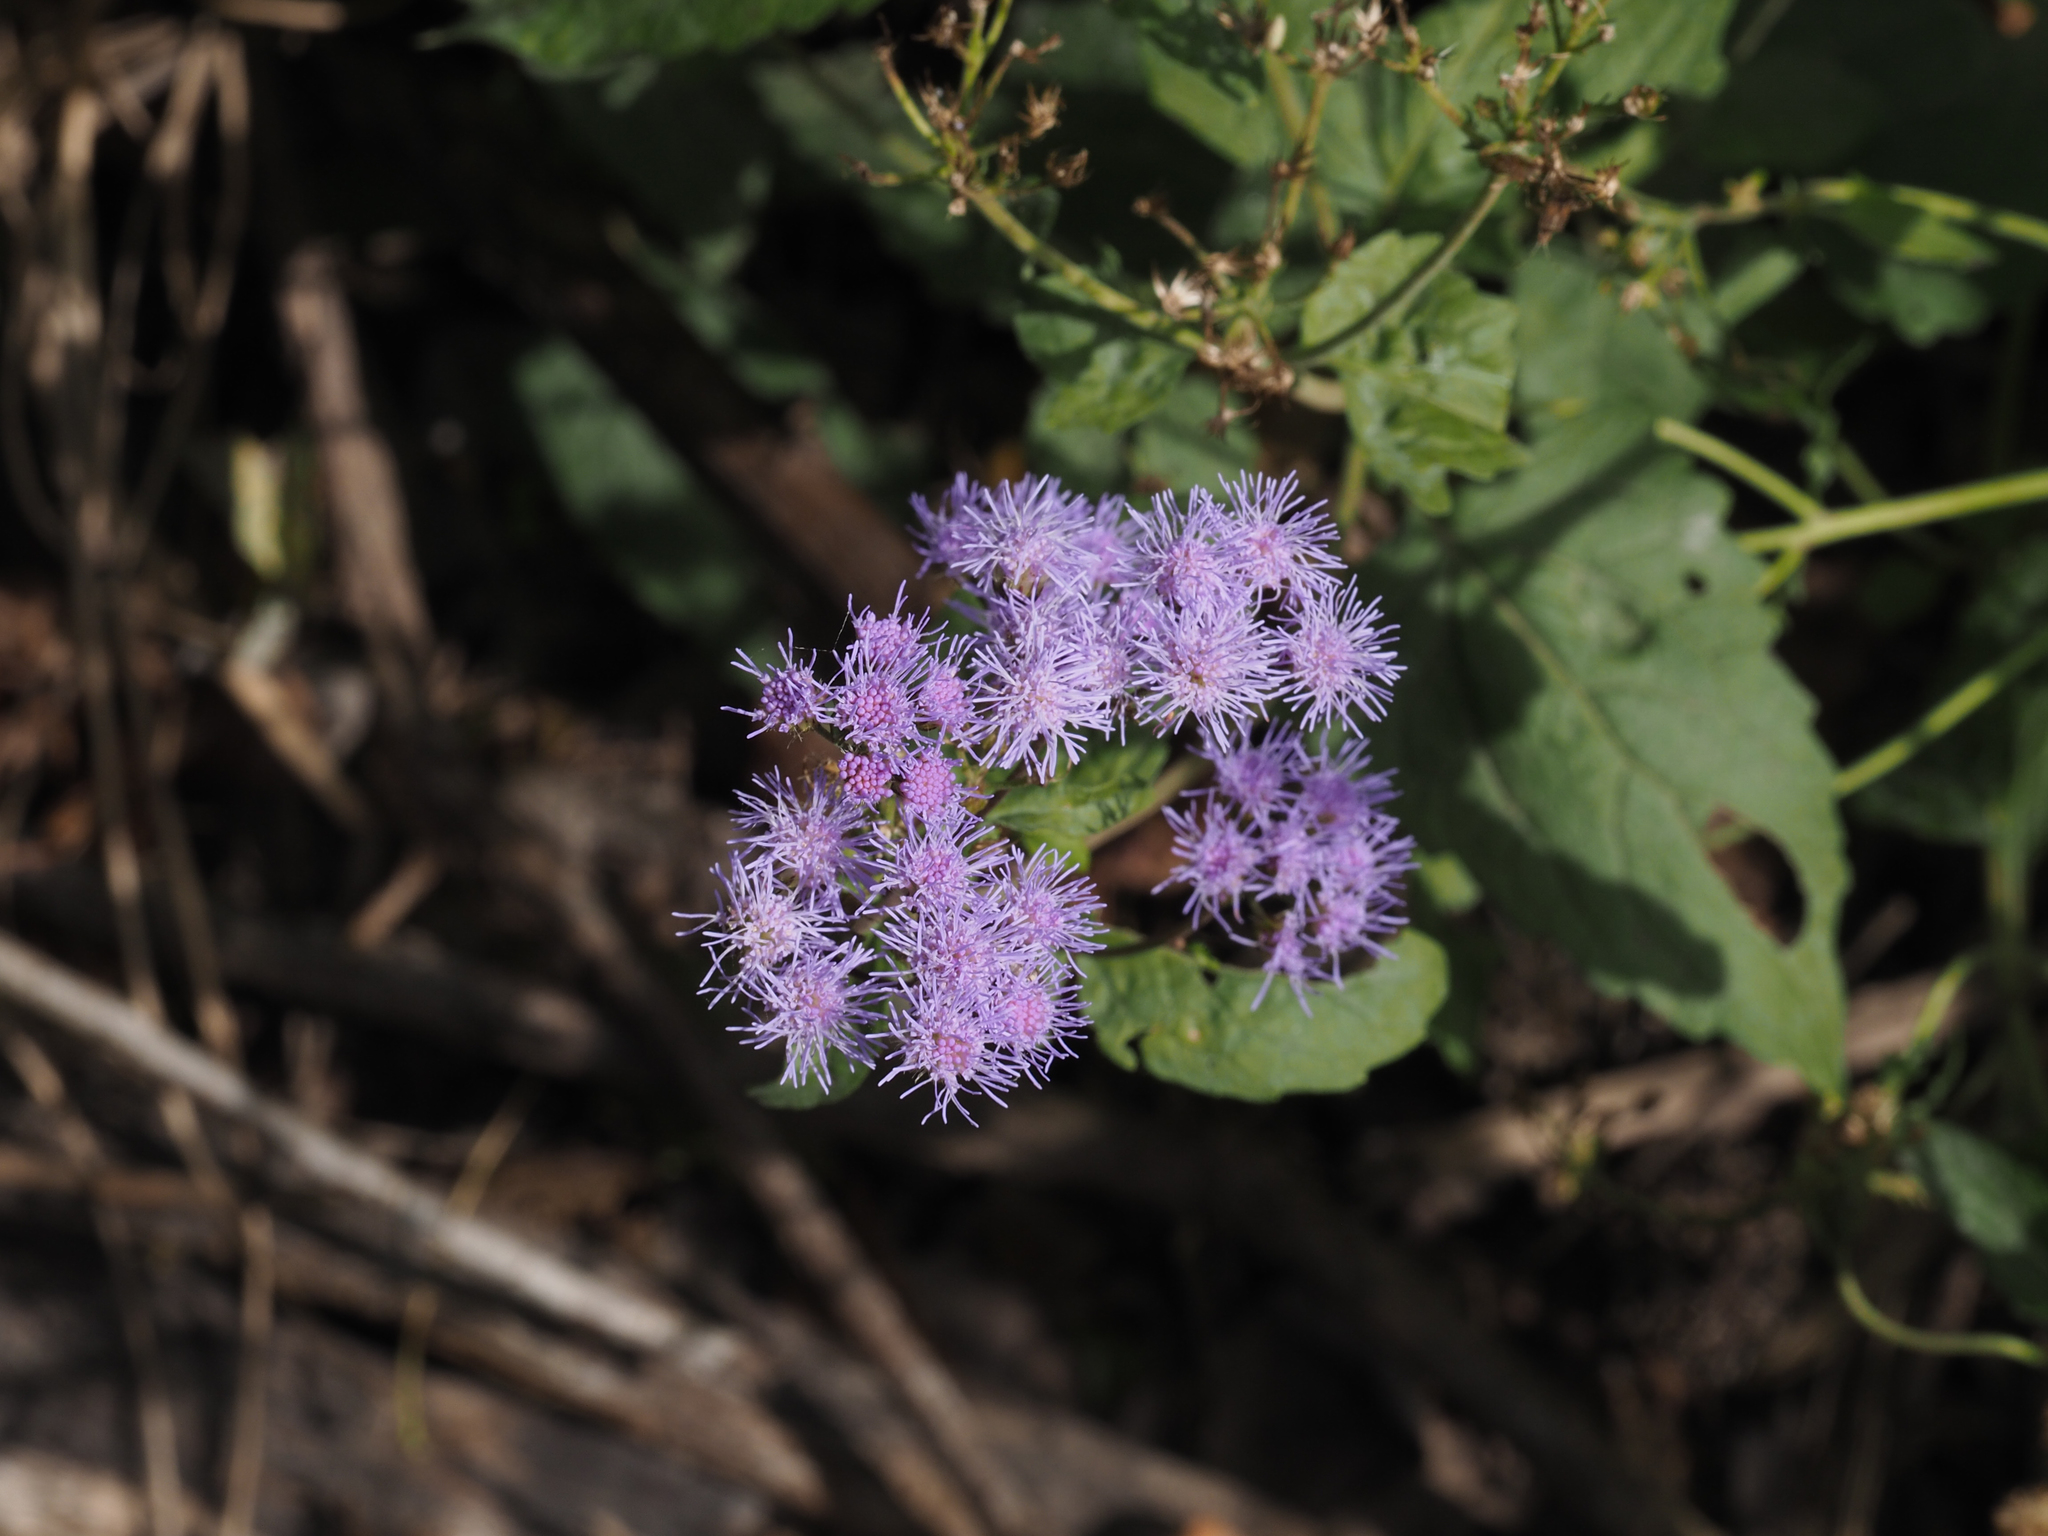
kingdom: Plantae
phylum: Tracheophyta
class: Magnoliopsida
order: Asterales
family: Asteraceae
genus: Conoclinium
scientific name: Conoclinium coelestinum
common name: Blue mistflower
